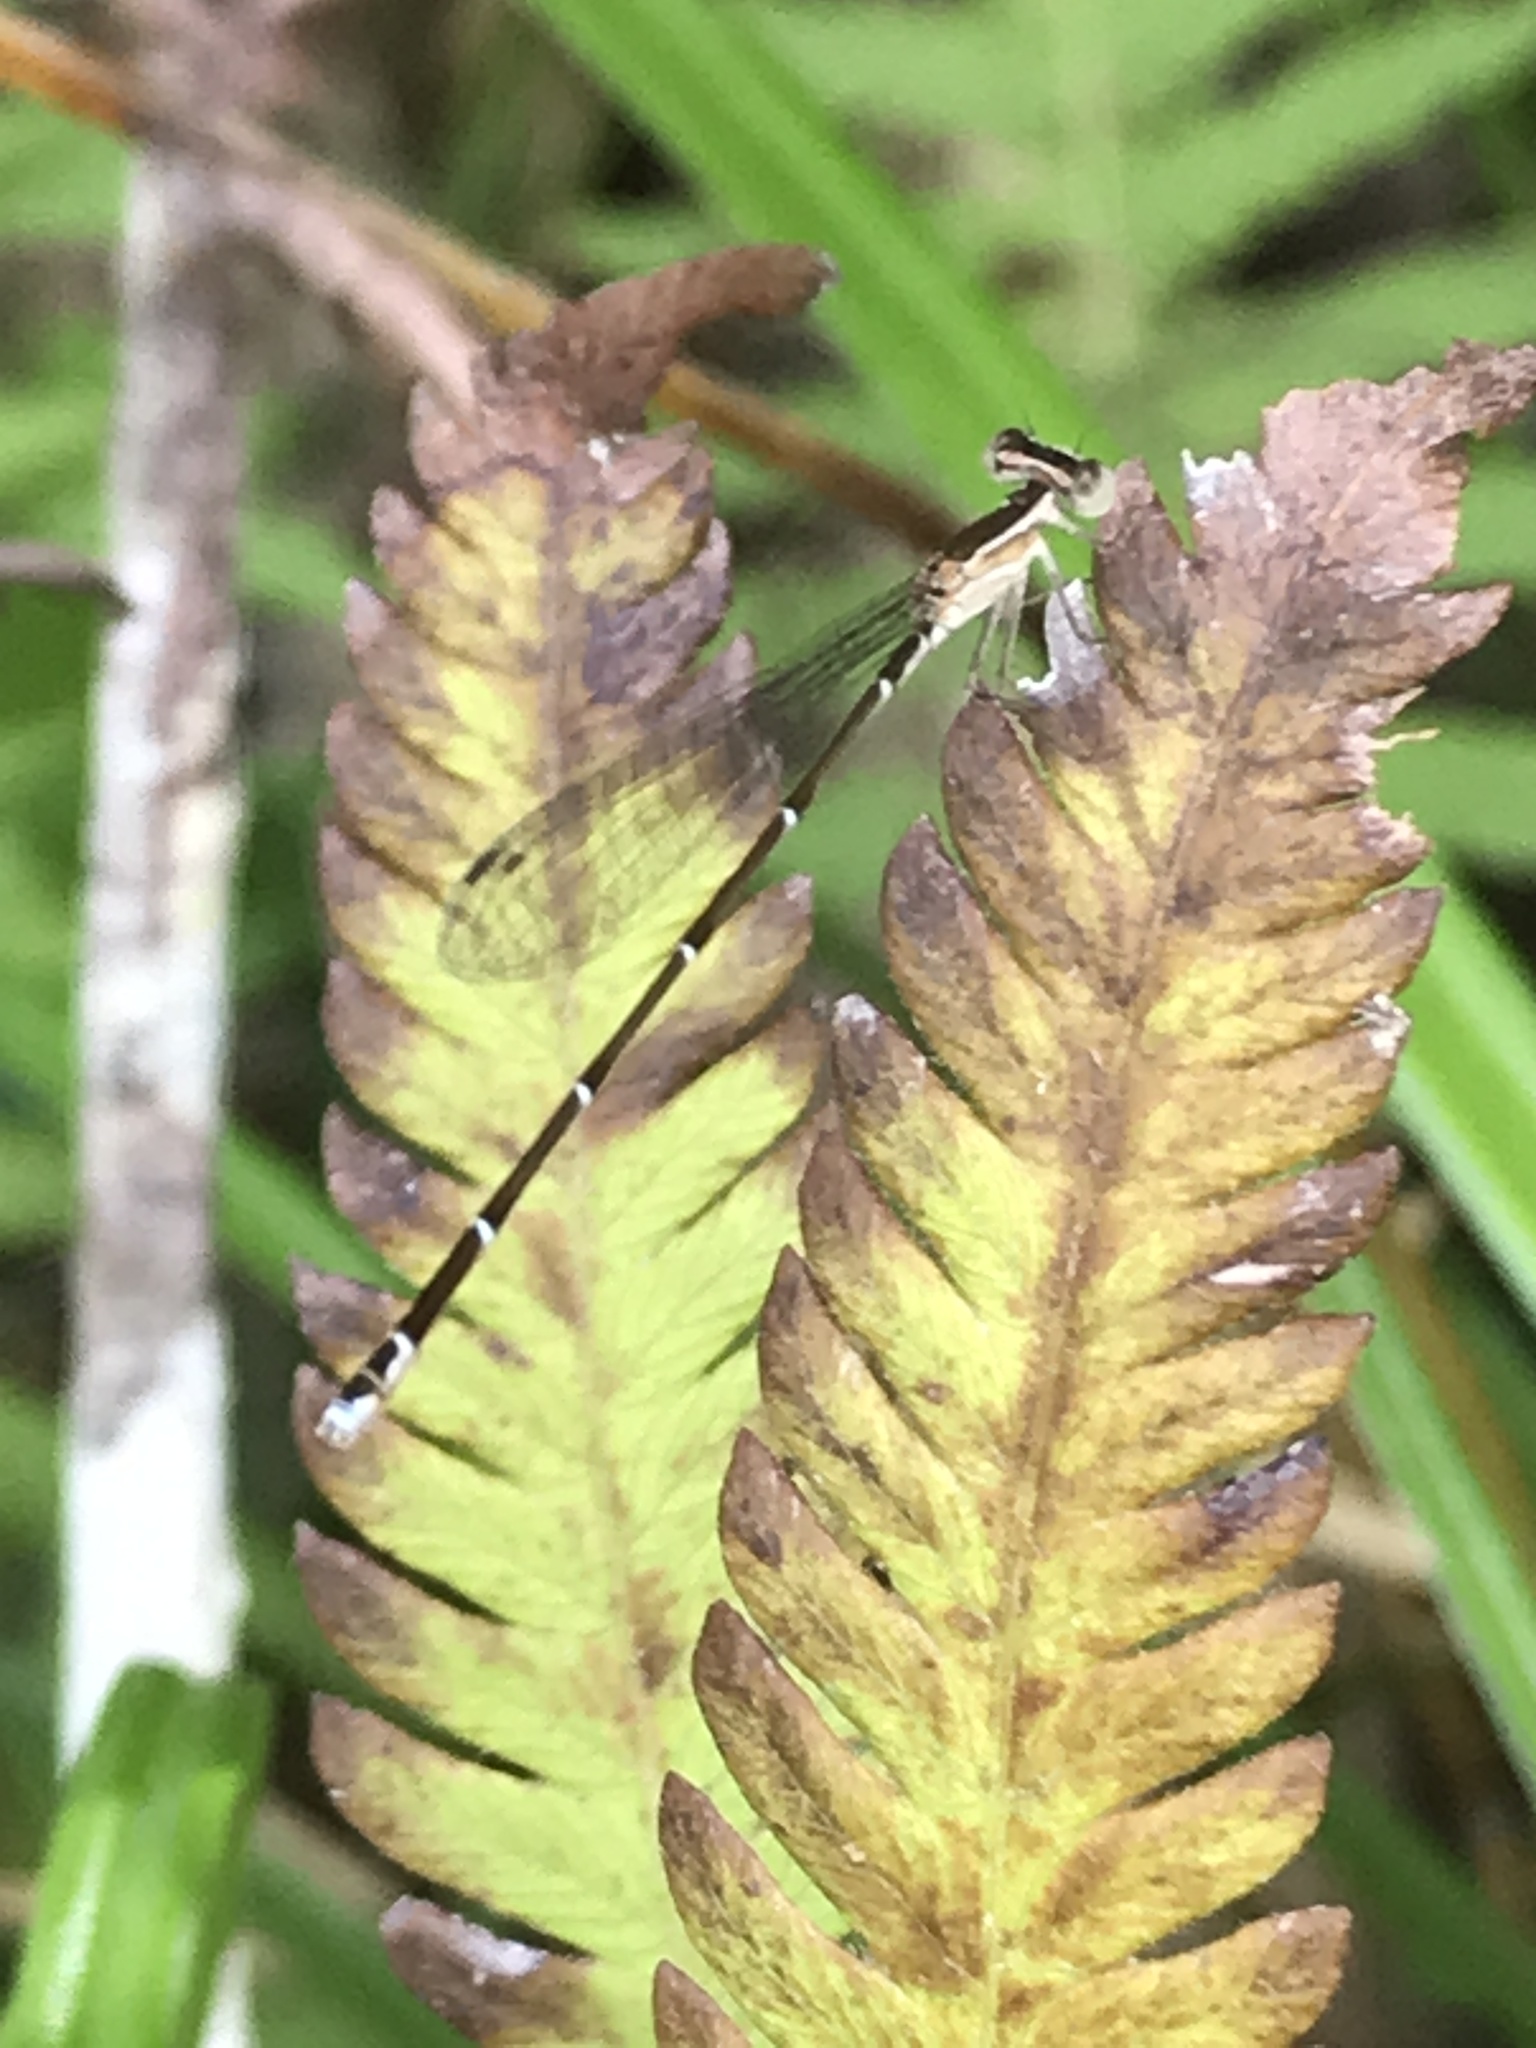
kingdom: Animalia
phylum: Arthropoda
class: Insecta
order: Odonata
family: Coenagrionidae
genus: Nehalennia
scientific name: Nehalennia pallidula
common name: Everglades sprite
